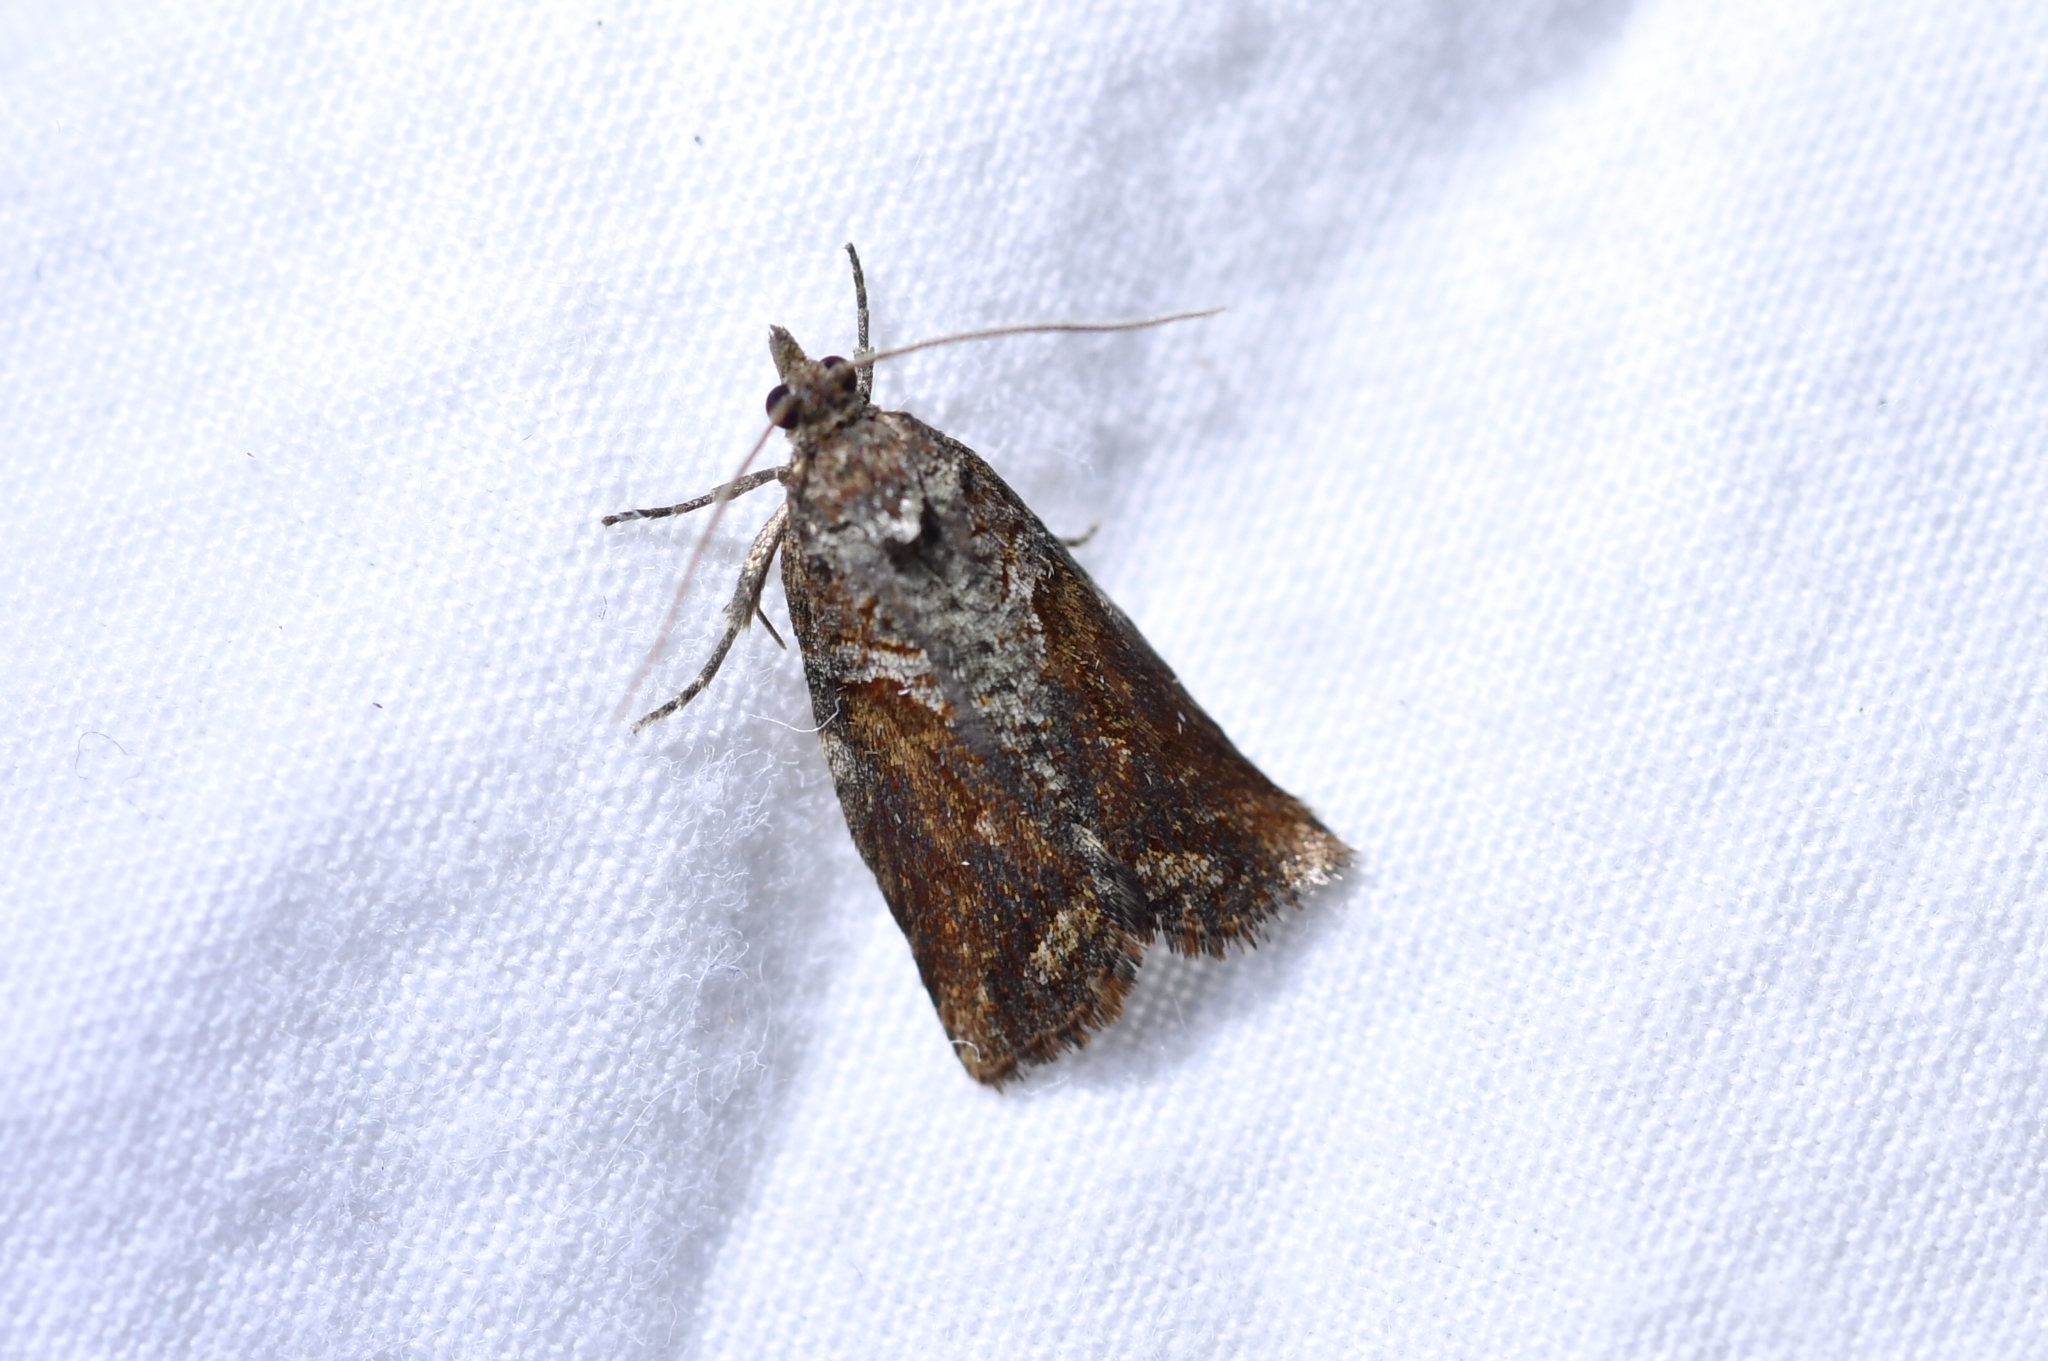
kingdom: Animalia
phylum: Arthropoda
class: Insecta
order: Lepidoptera
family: Tortricidae
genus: Harmologa
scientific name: Harmologa scoliastis
